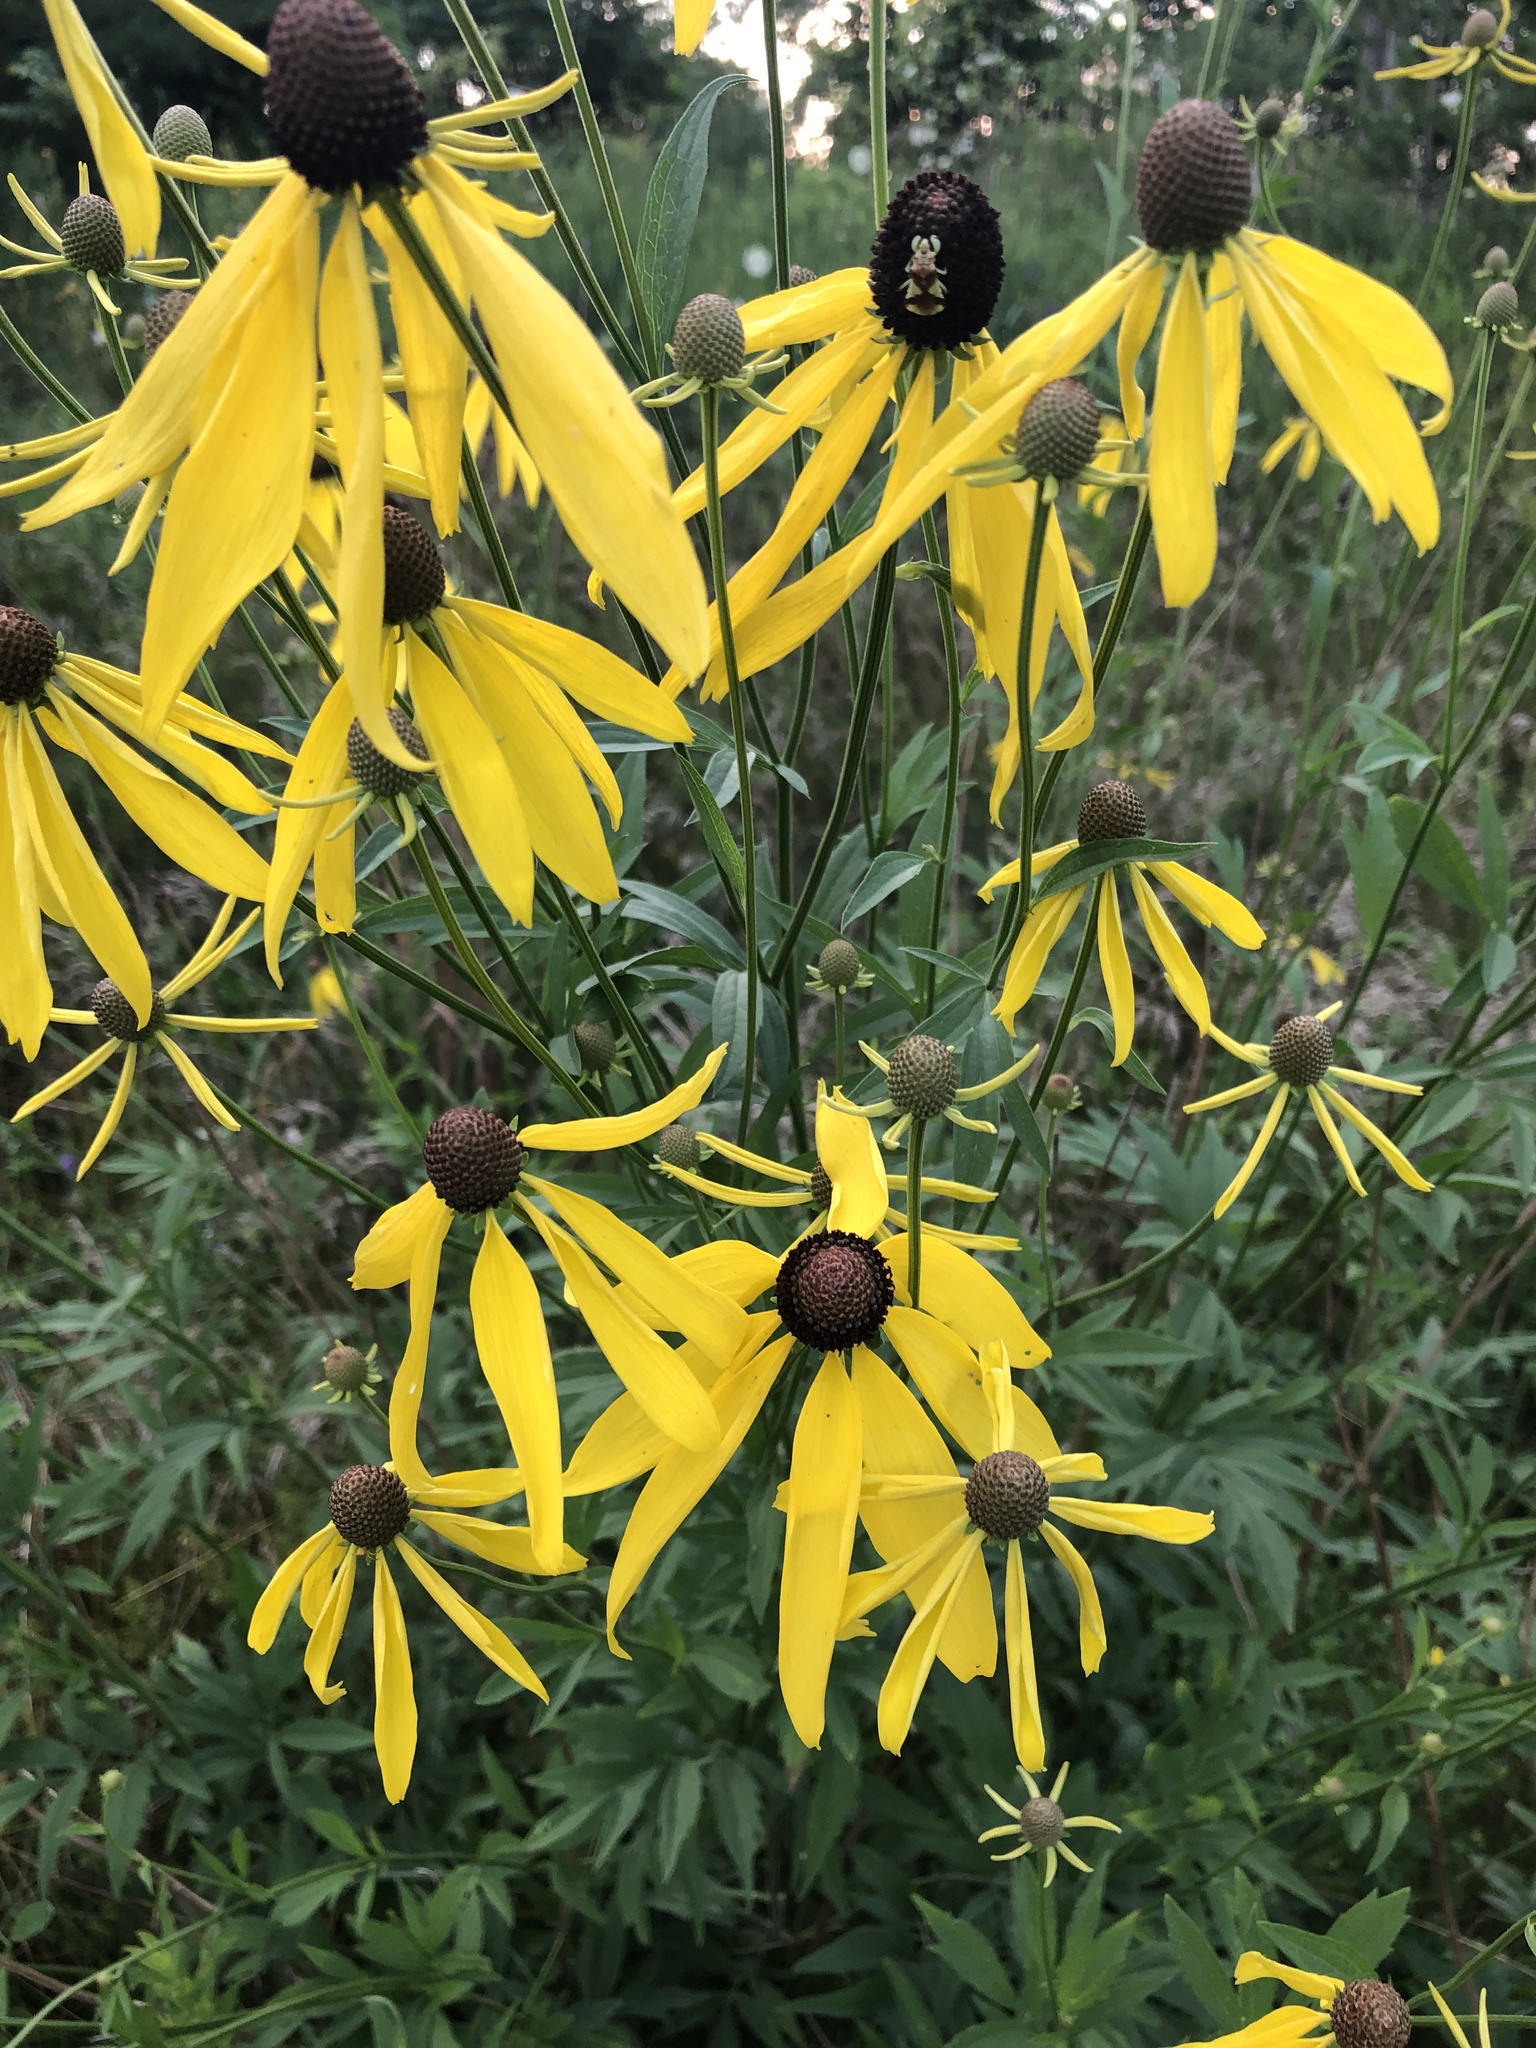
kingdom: Plantae
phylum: Tracheophyta
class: Magnoliopsida
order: Asterales
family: Asteraceae
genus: Ratibida
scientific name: Ratibida pinnata
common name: Drooping prairie-coneflower
